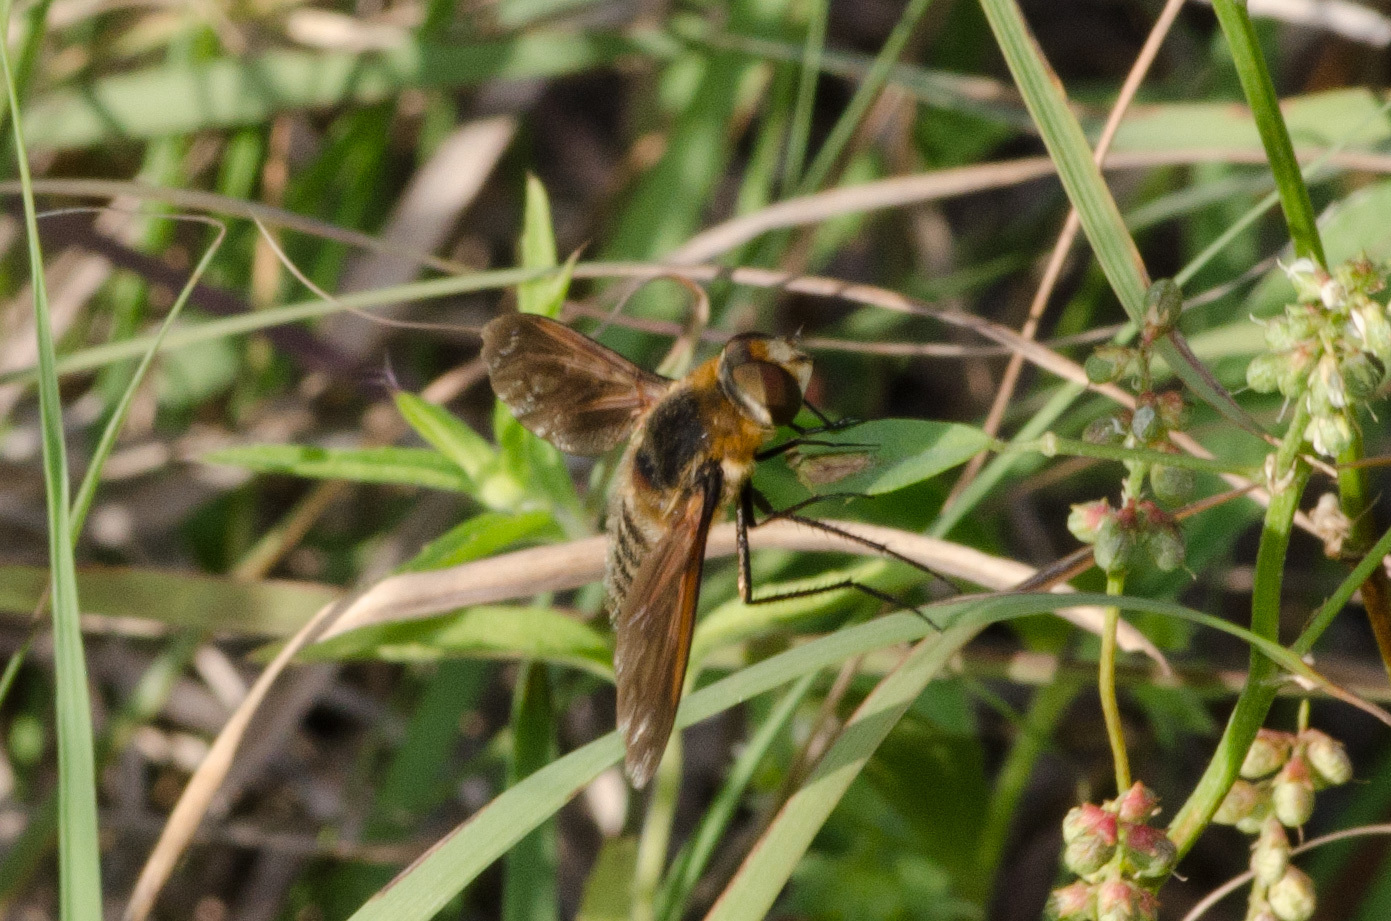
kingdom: Animalia
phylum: Arthropoda
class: Insecta
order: Diptera
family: Bombyliidae
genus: Poecilanthrax
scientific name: Poecilanthrax lucifer
